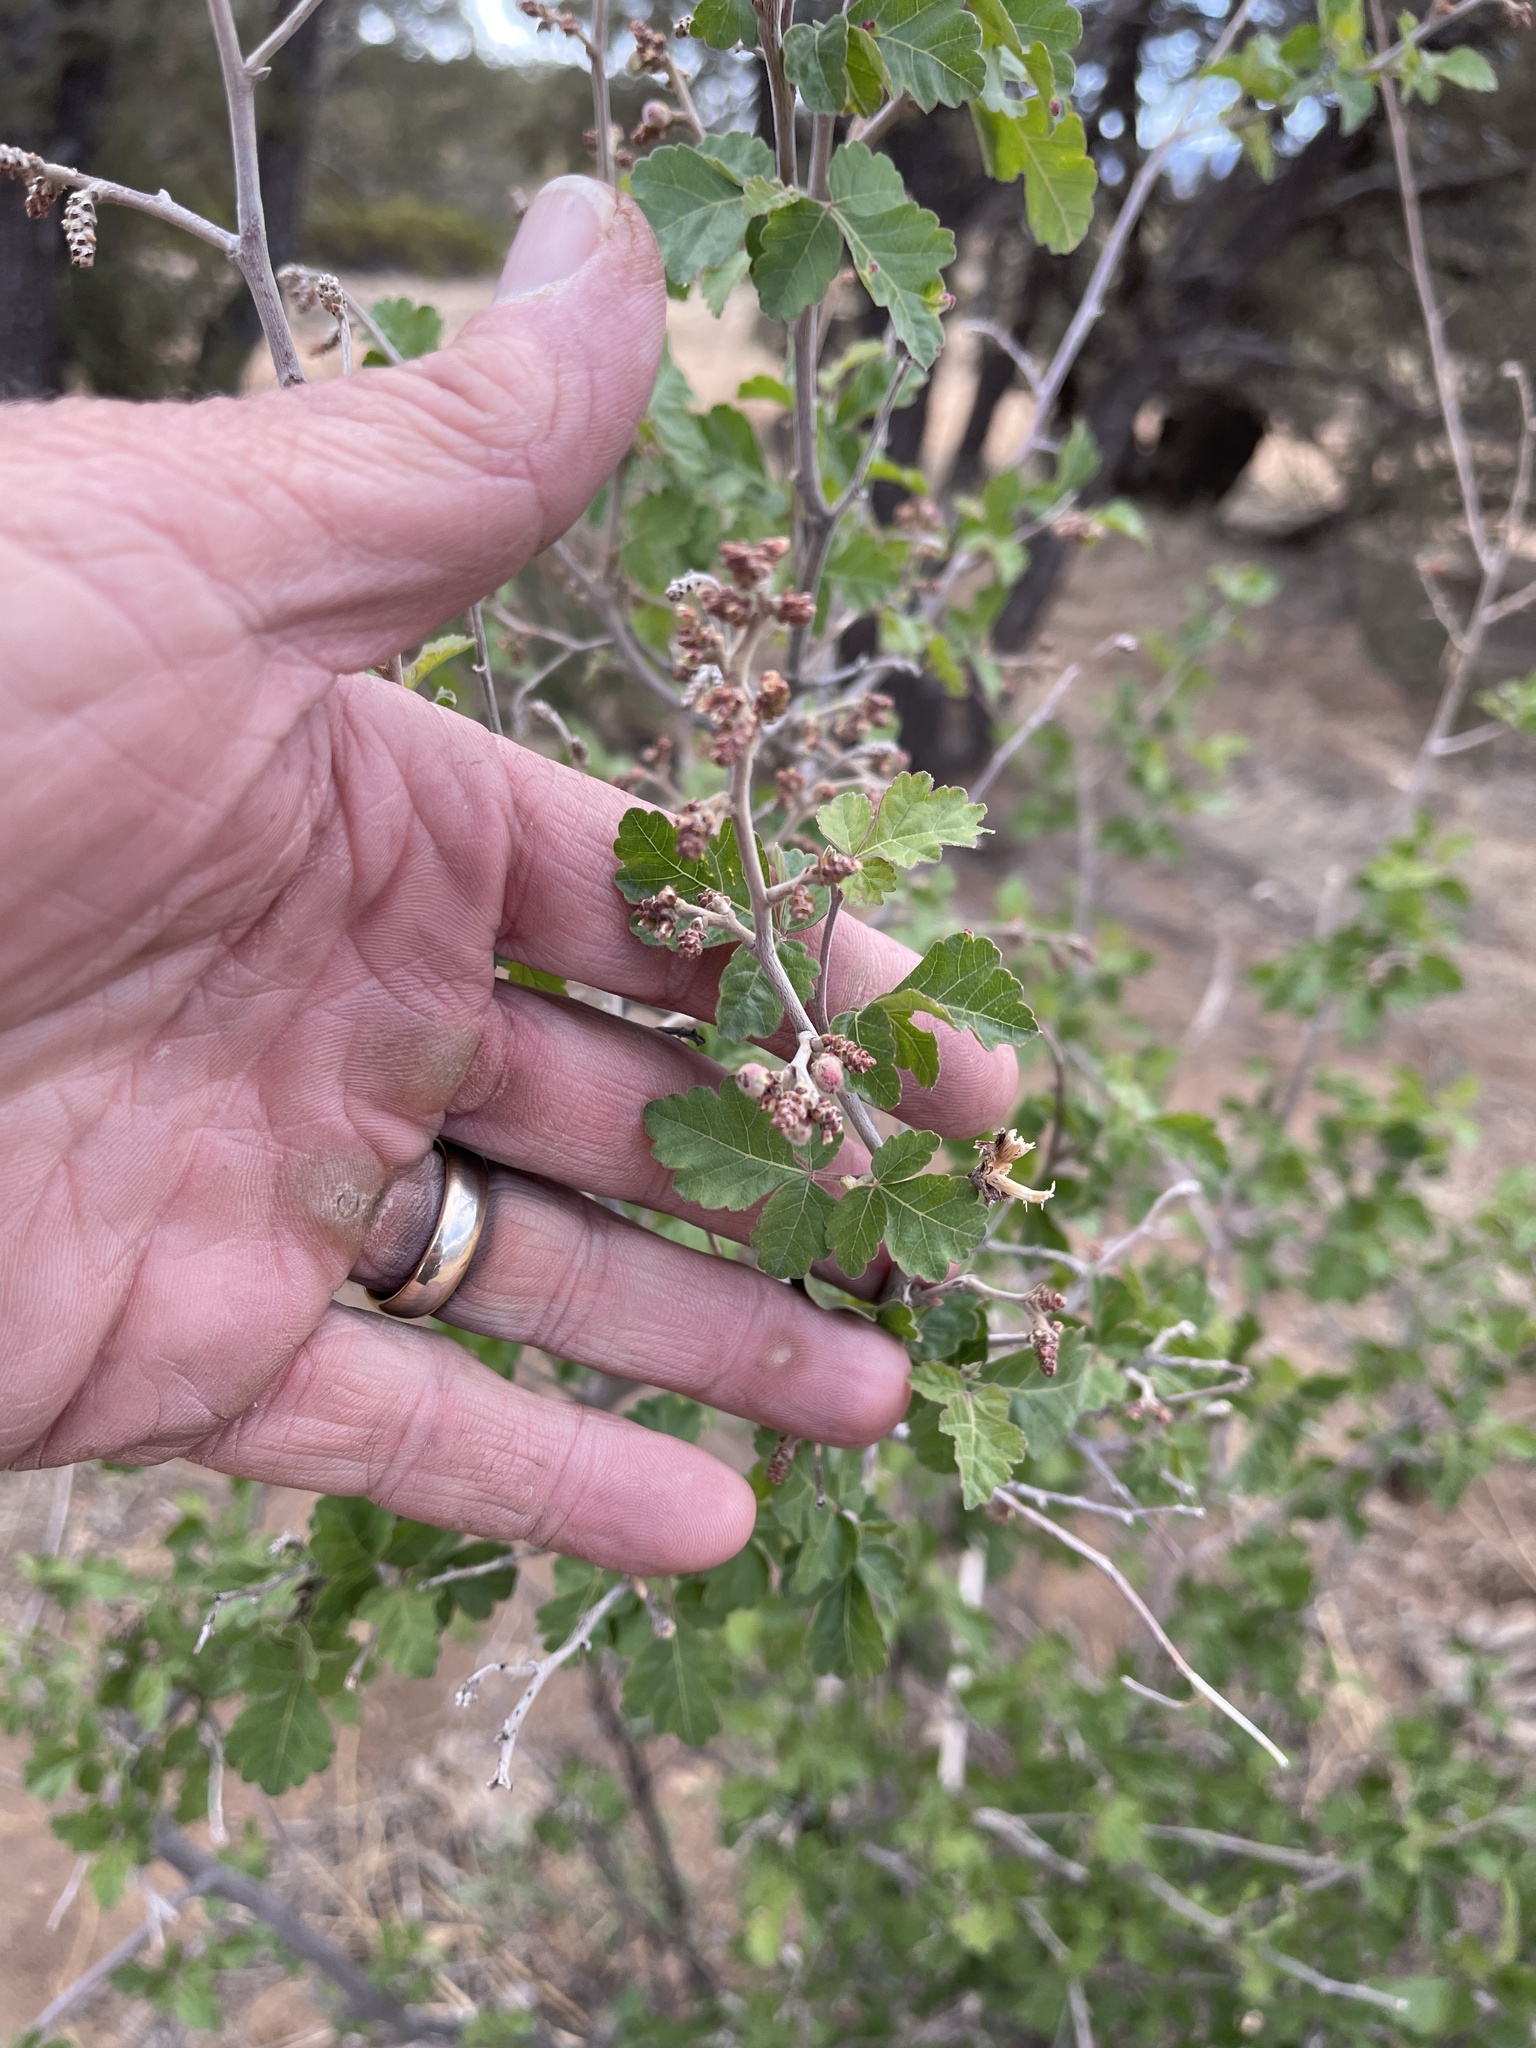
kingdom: Plantae
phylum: Tracheophyta
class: Magnoliopsida
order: Sapindales
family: Anacardiaceae
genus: Rhus
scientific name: Rhus aromatica
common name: Aromatic sumac
